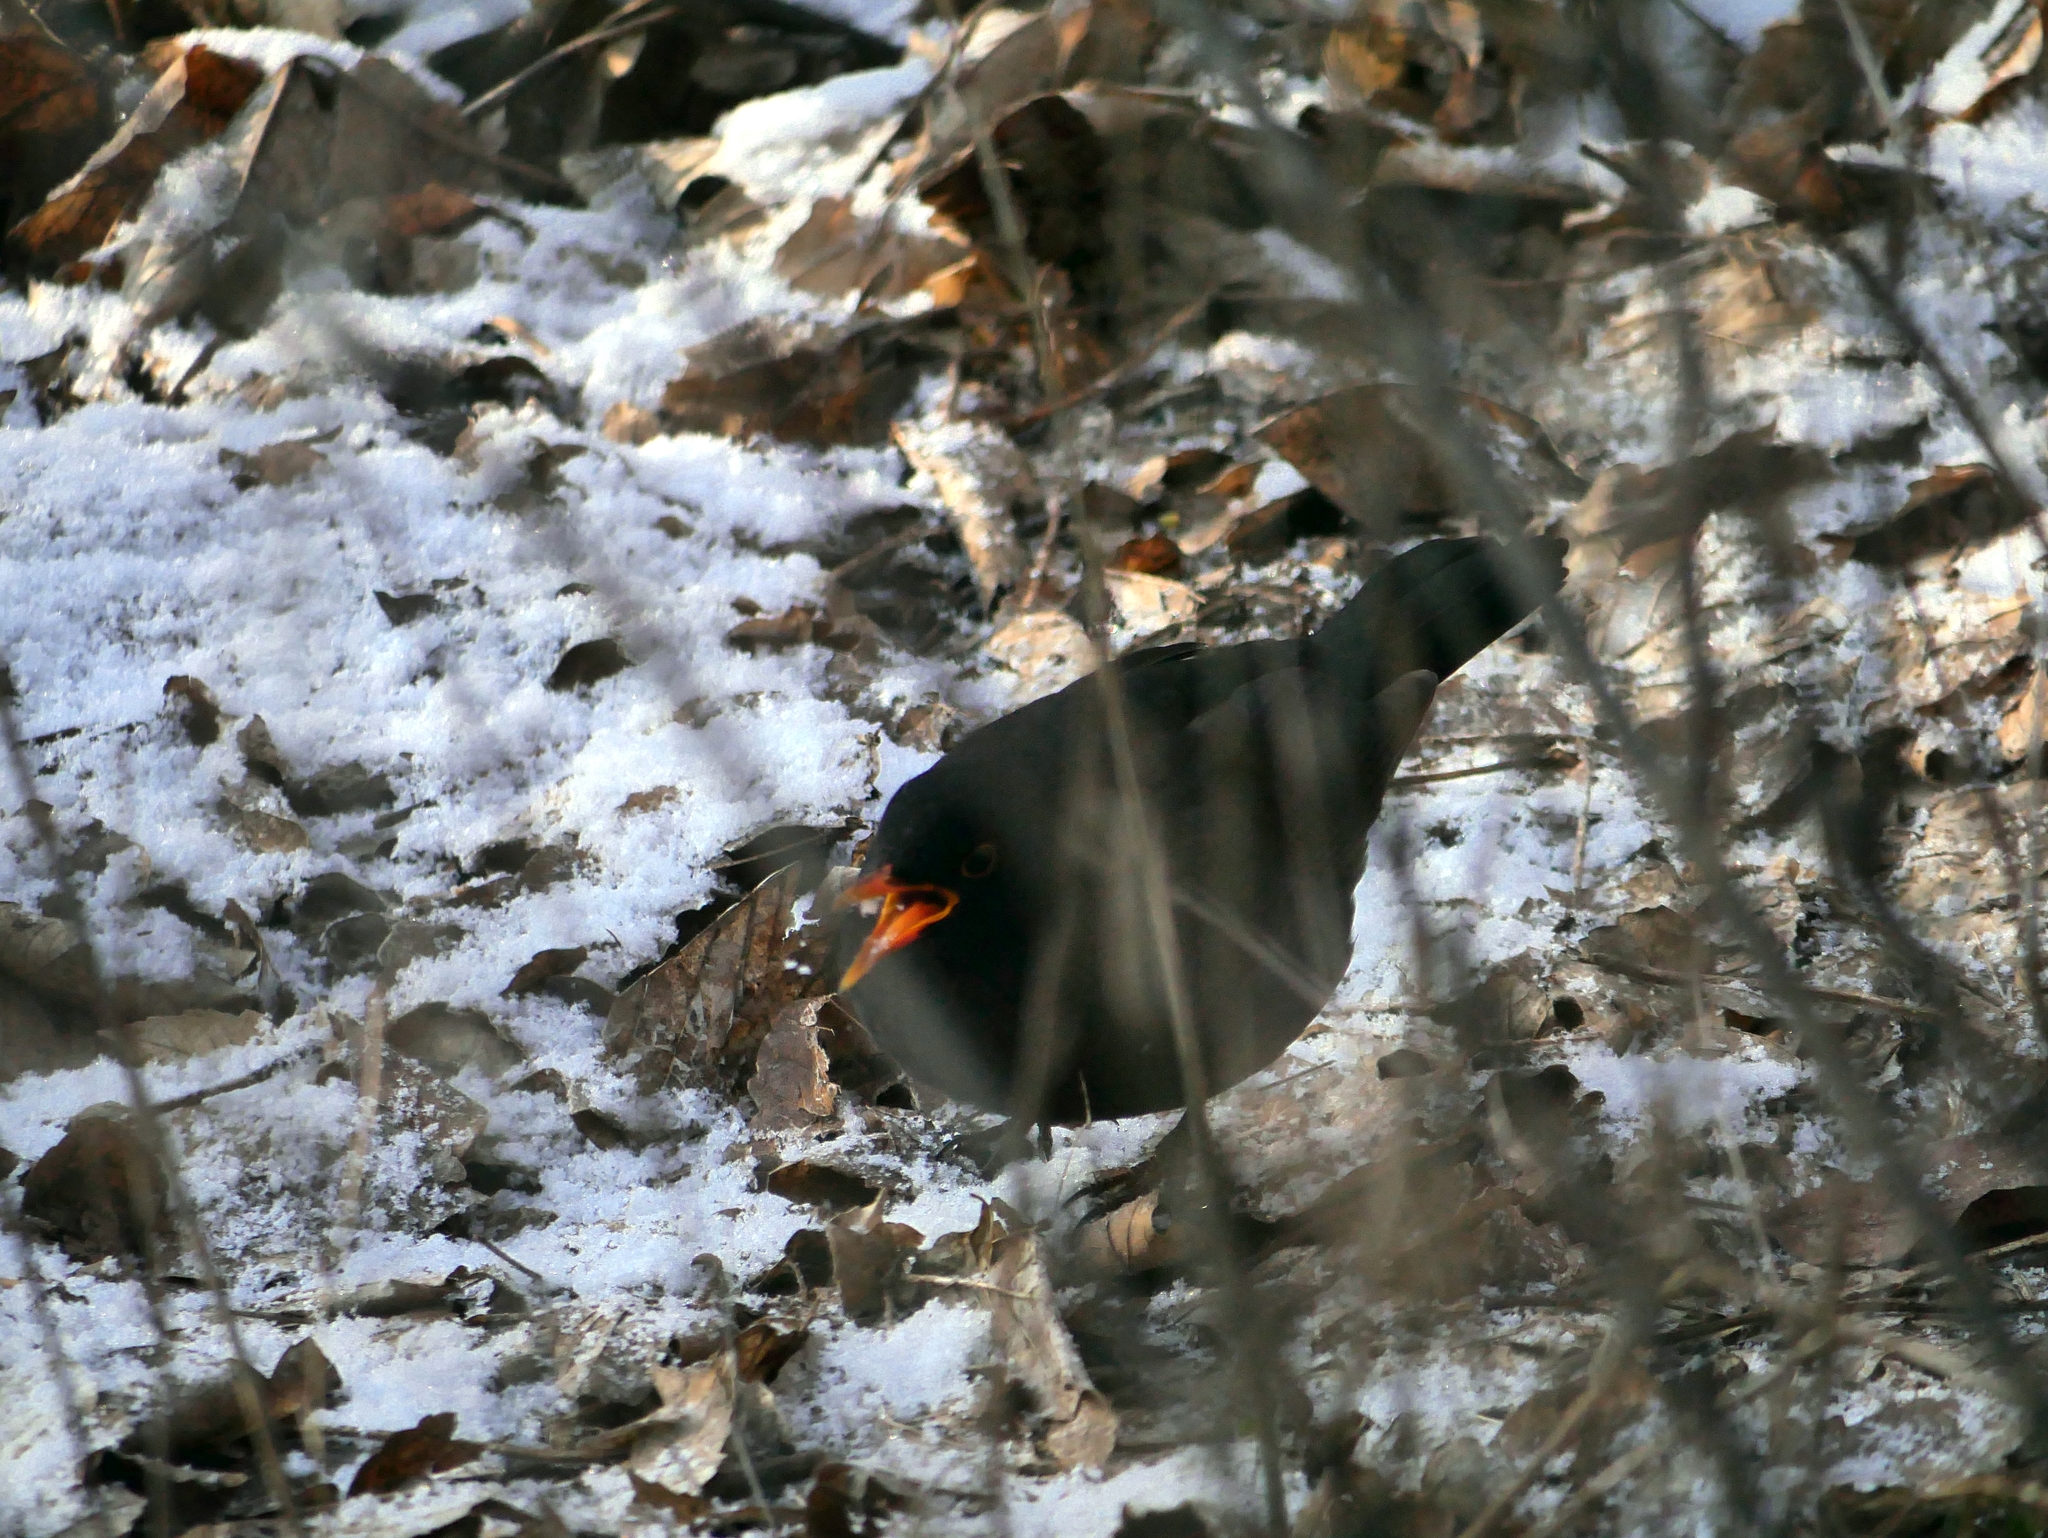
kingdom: Animalia
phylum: Chordata
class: Aves
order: Passeriformes
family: Turdidae
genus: Turdus
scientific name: Turdus merula
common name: Common blackbird
